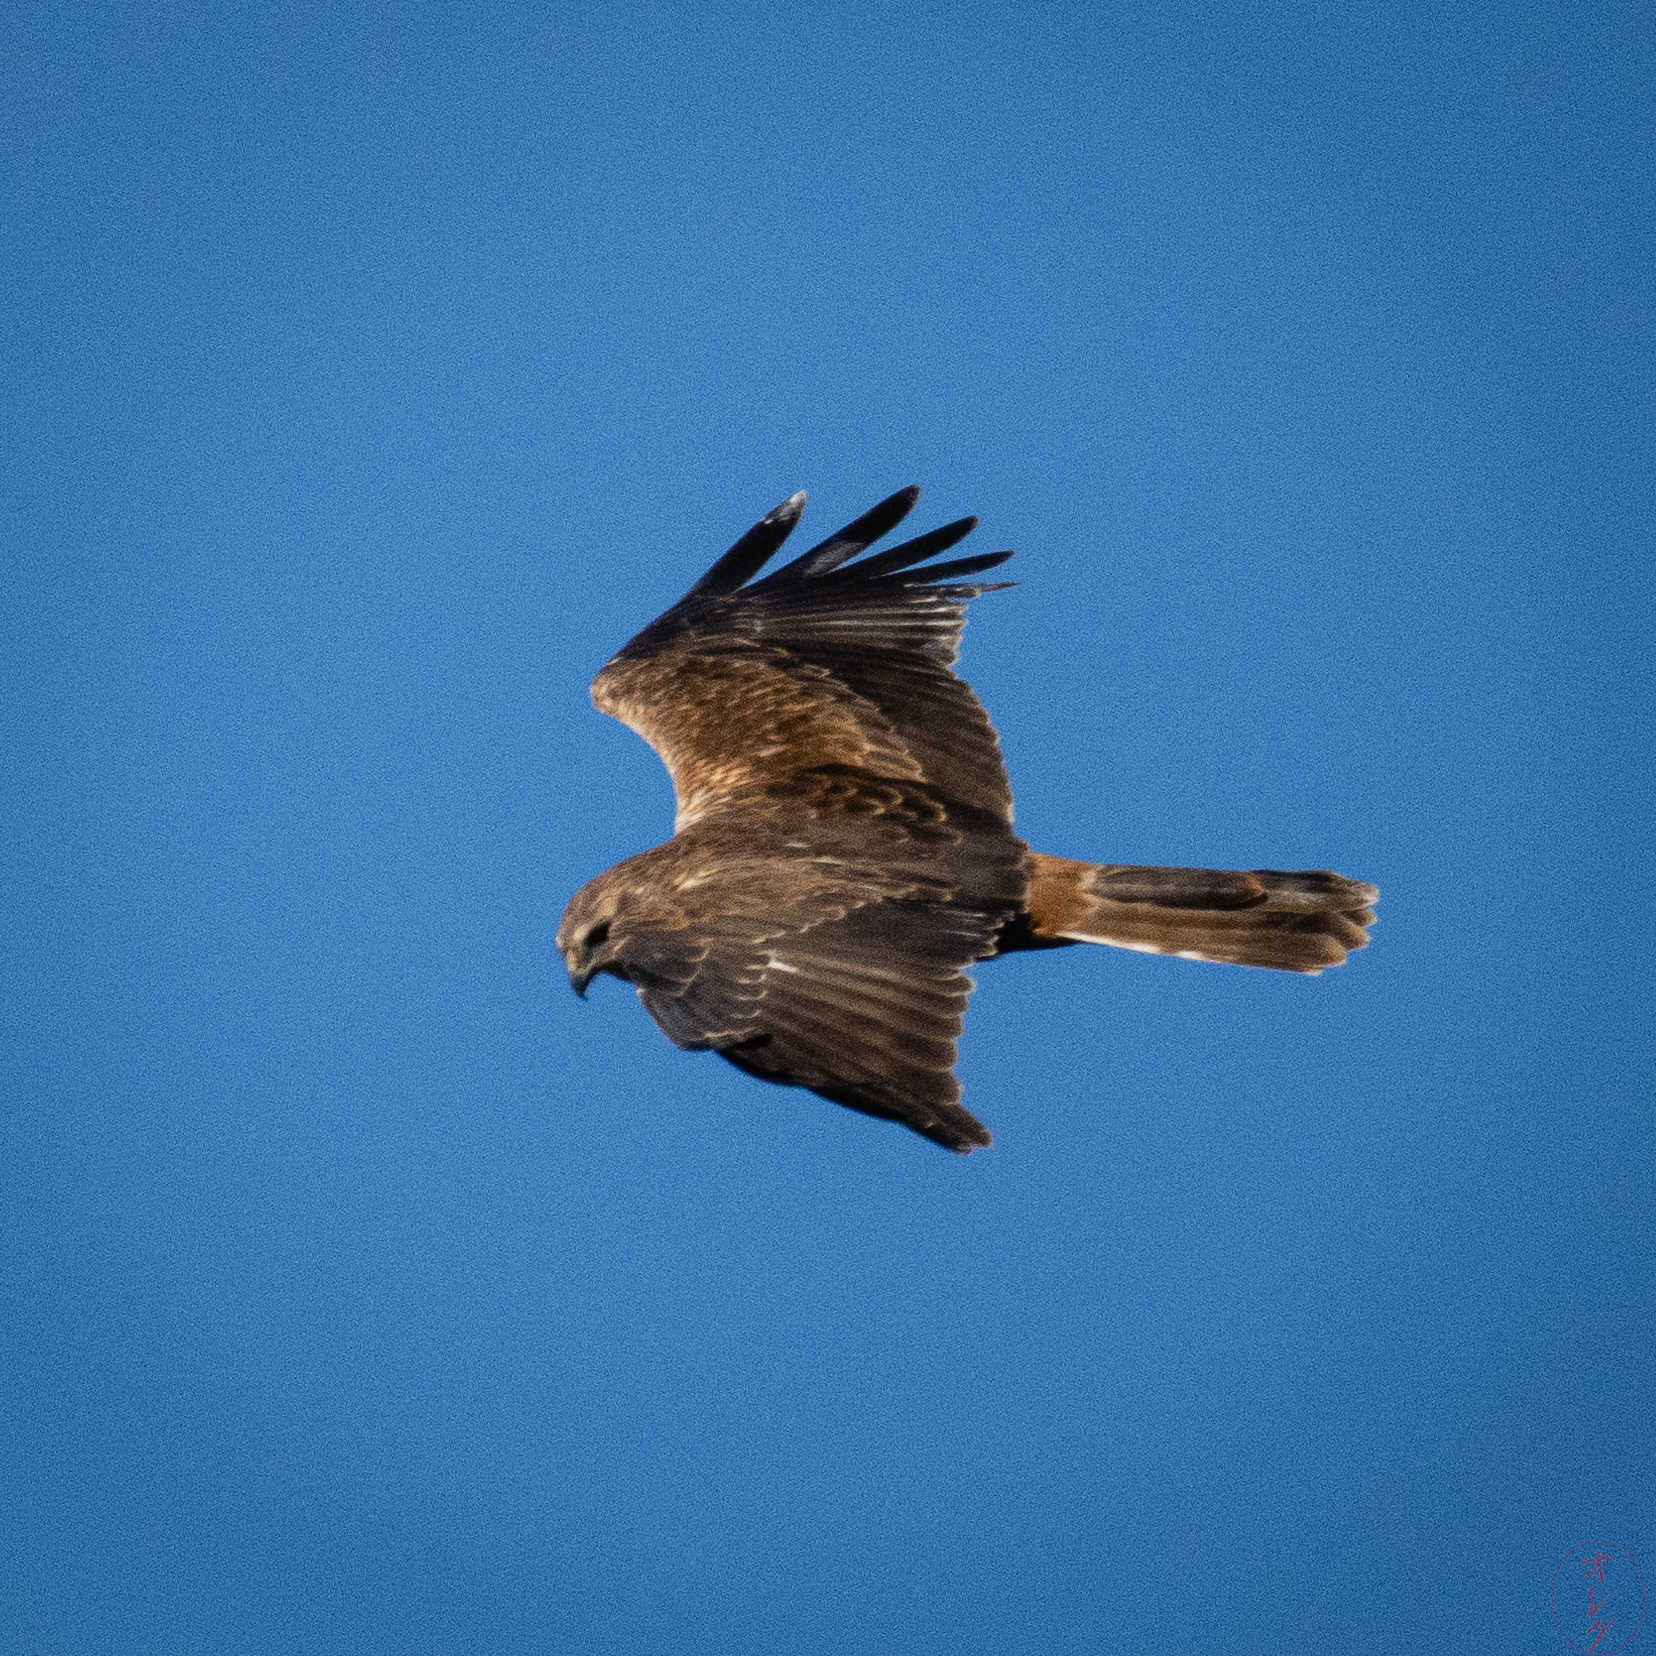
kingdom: Animalia
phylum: Chordata
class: Aves
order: Accipitriformes
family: Accipitridae
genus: Milvus
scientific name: Milvus migrans
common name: Black kite
